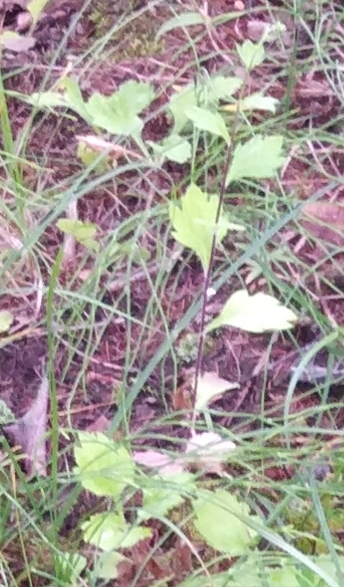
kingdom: Plantae
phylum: Tracheophyta
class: Magnoliopsida
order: Asterales
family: Asteraceae
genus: Artemisia
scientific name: Artemisia keiskeana
